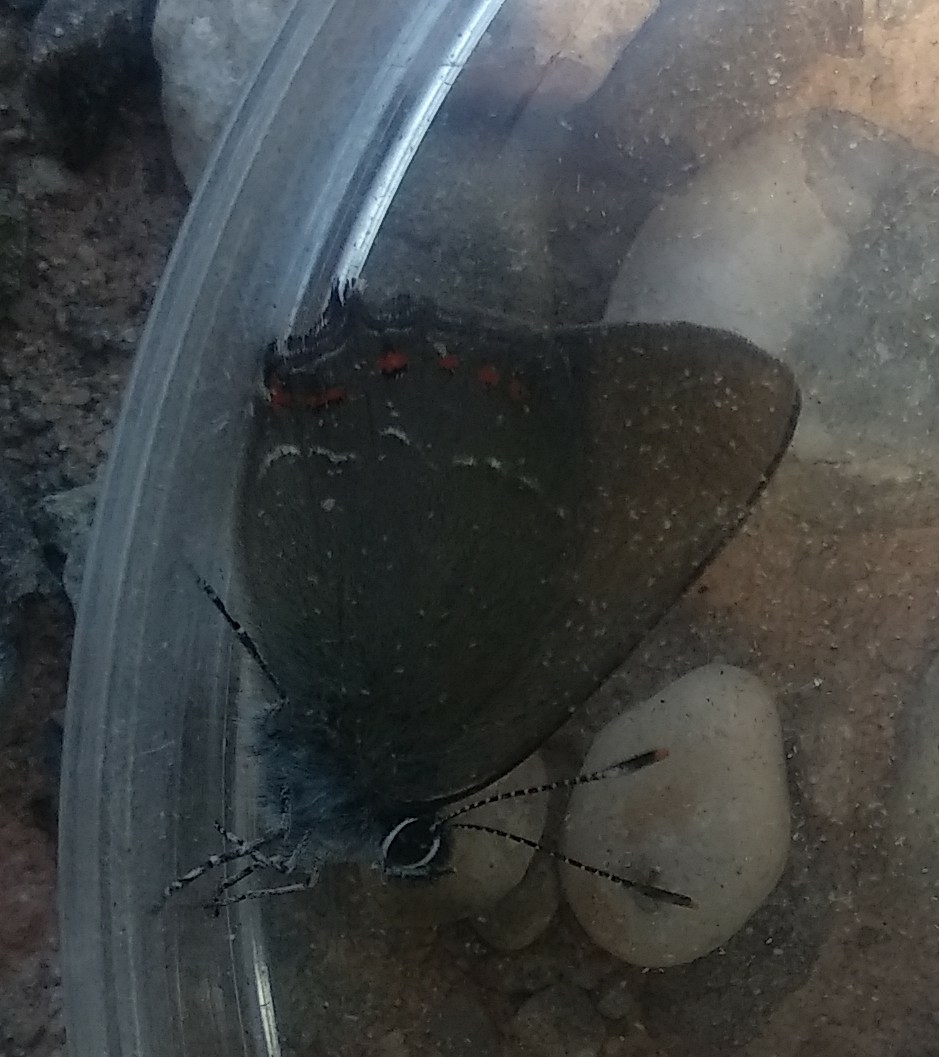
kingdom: Animalia
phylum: Arthropoda
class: Insecta
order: Lepidoptera
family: Lycaenidae
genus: Fixsenia
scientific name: Fixsenia esculi
